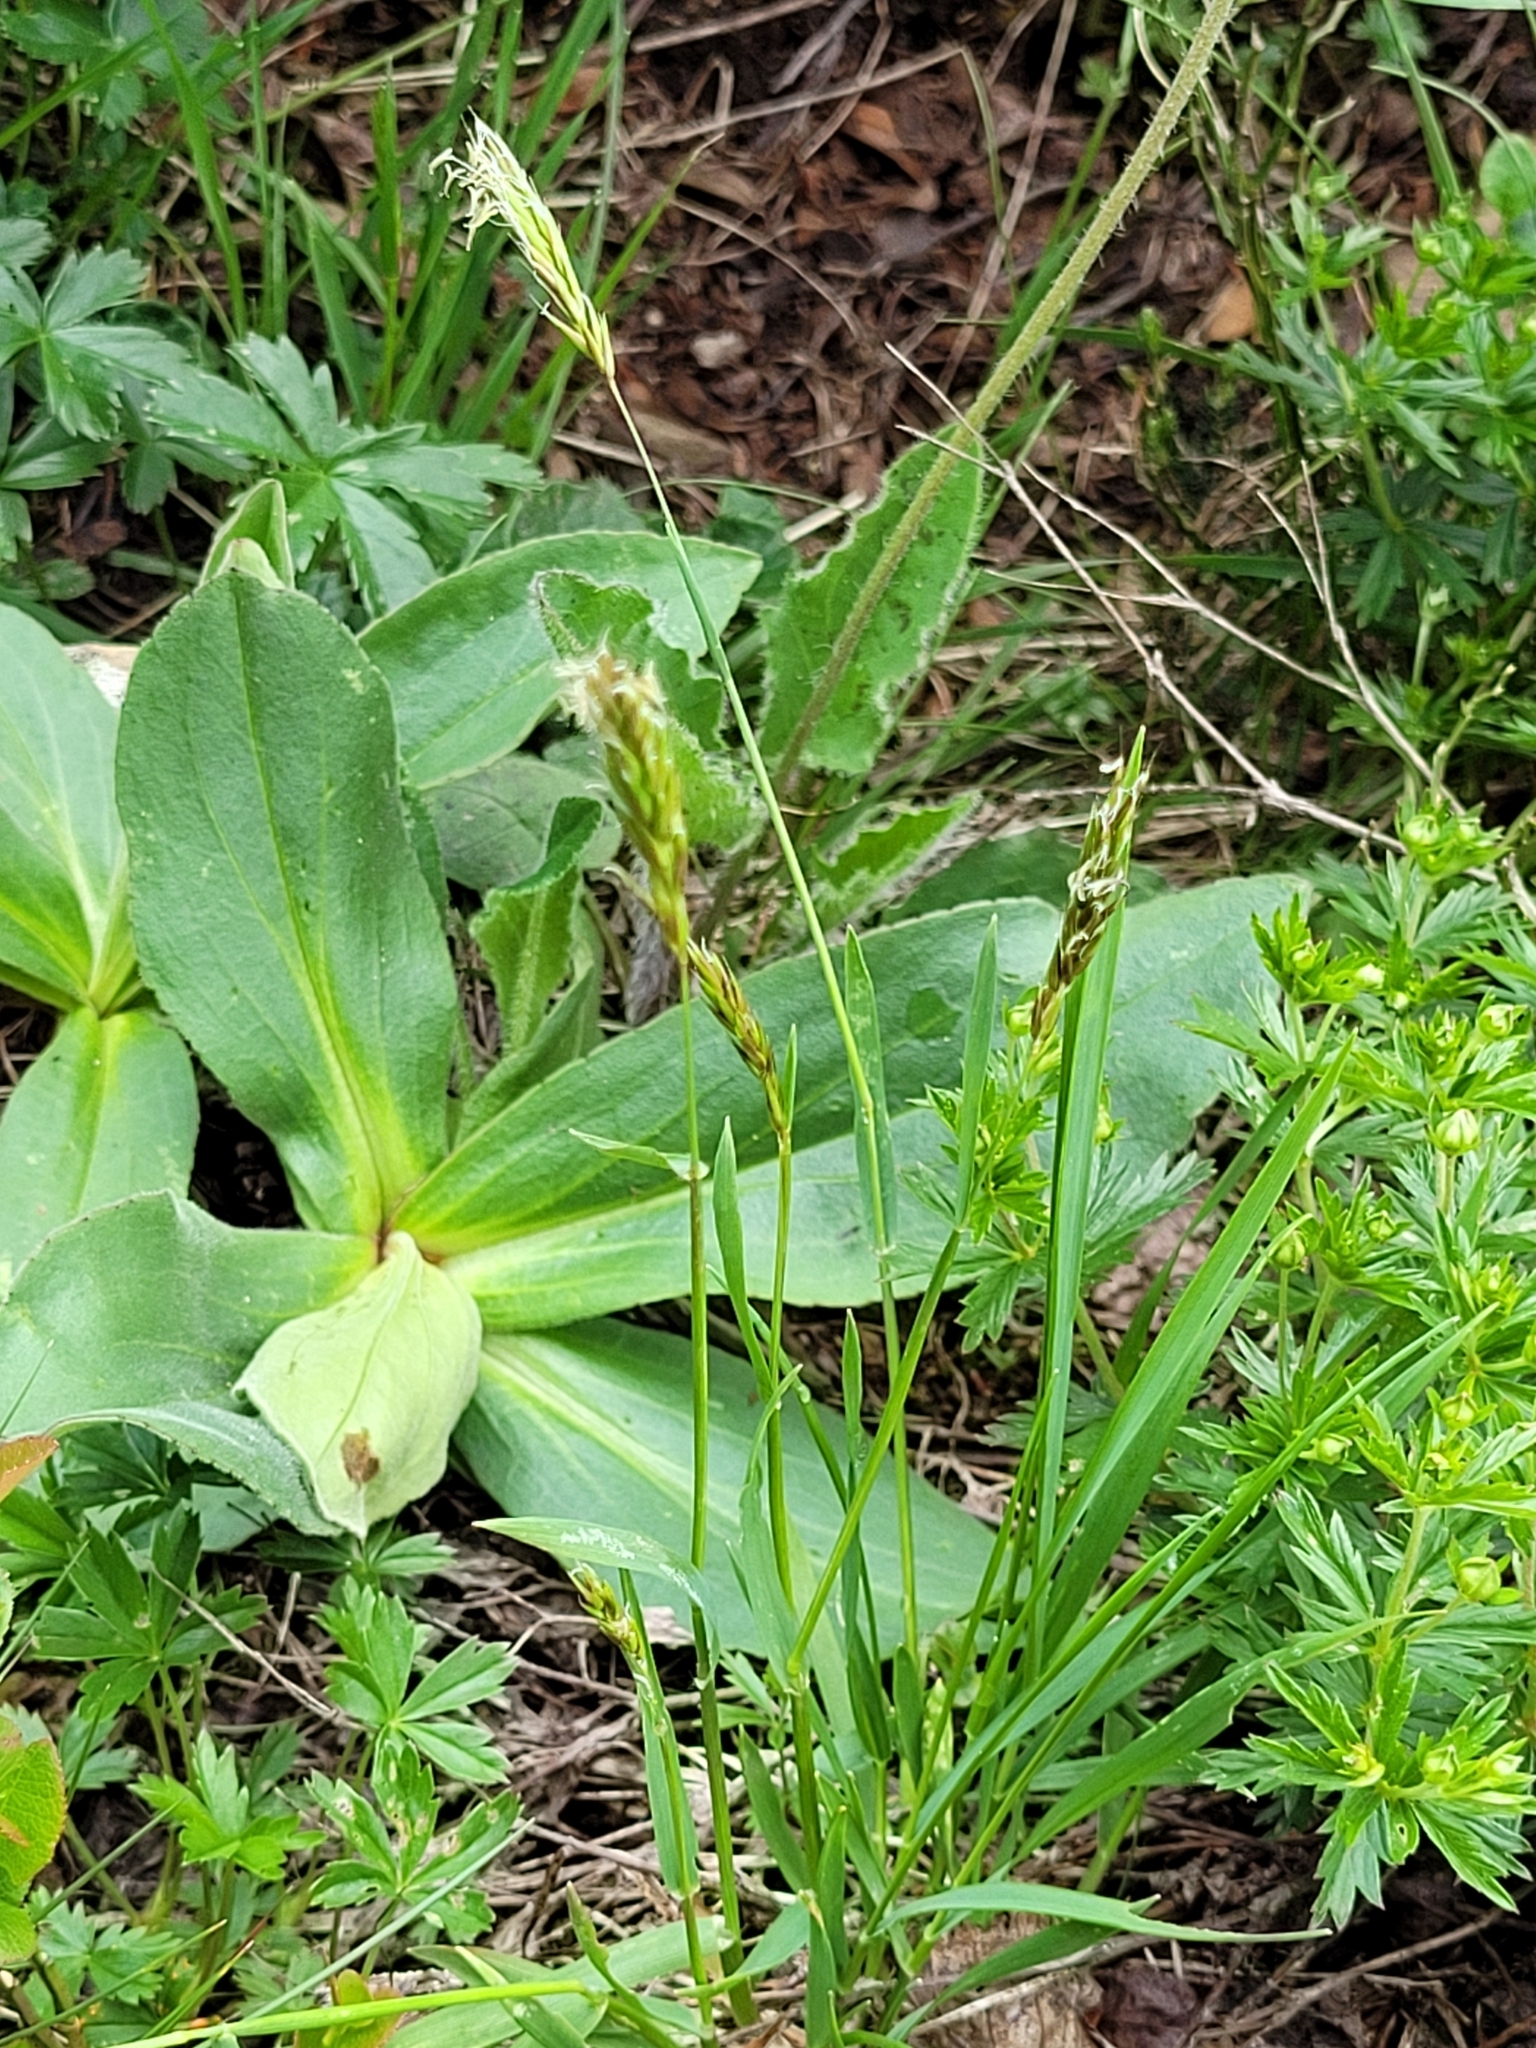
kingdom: Plantae
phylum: Tracheophyta
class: Liliopsida
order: Poales
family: Poaceae
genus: Anthoxanthum
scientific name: Anthoxanthum odoratum
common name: Sweet vernalgrass
